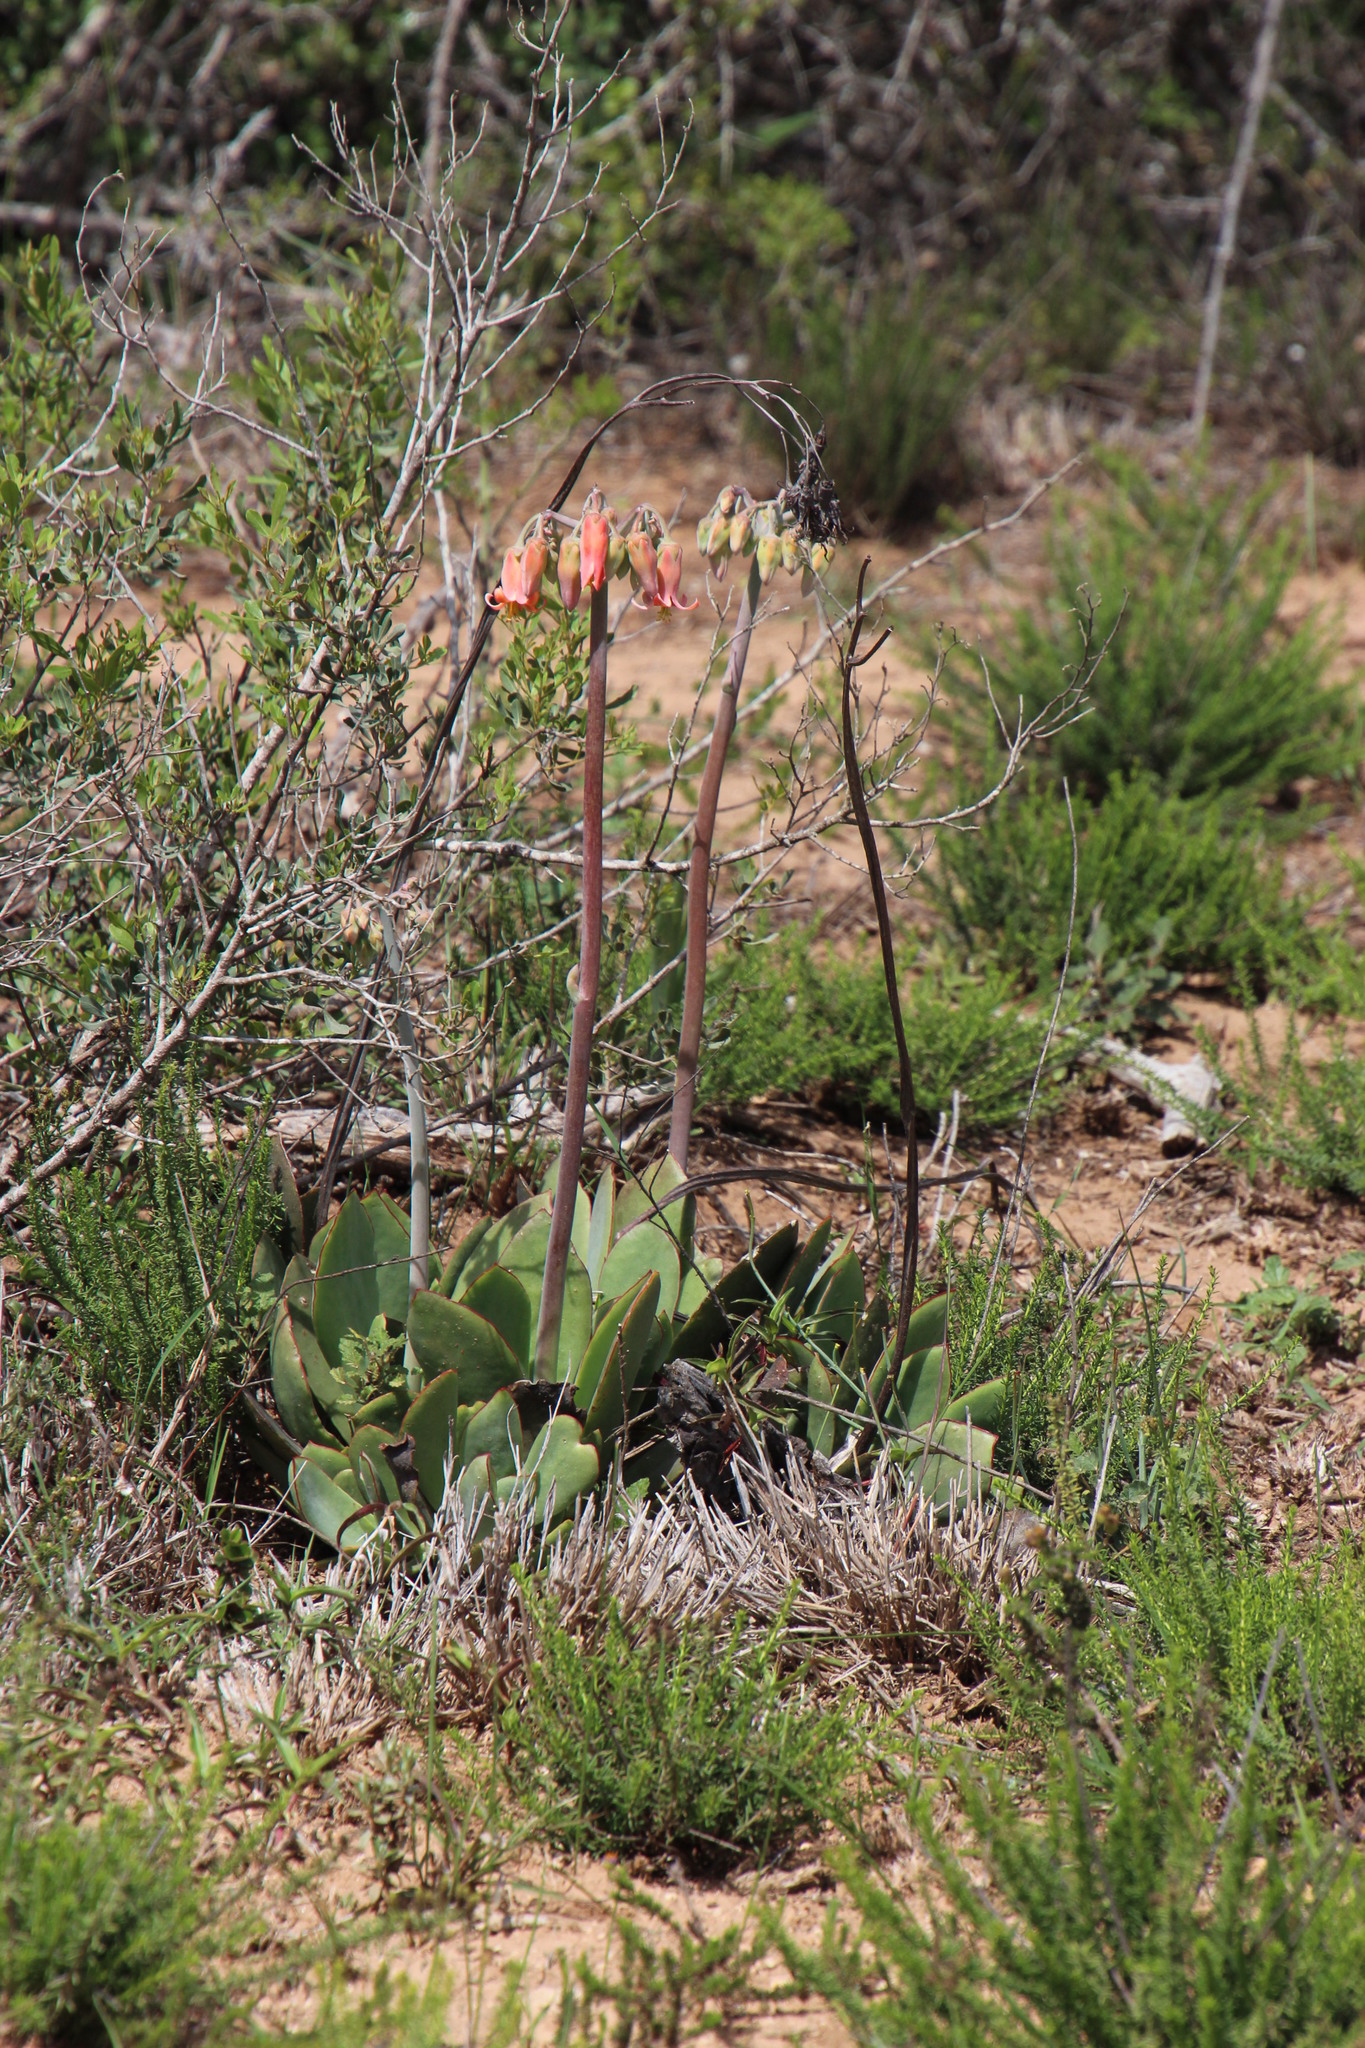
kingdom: Plantae
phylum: Tracheophyta
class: Magnoliopsida
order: Saxifragales
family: Crassulaceae
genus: Cotyledon
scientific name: Cotyledon orbiculata
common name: Pig's ear
